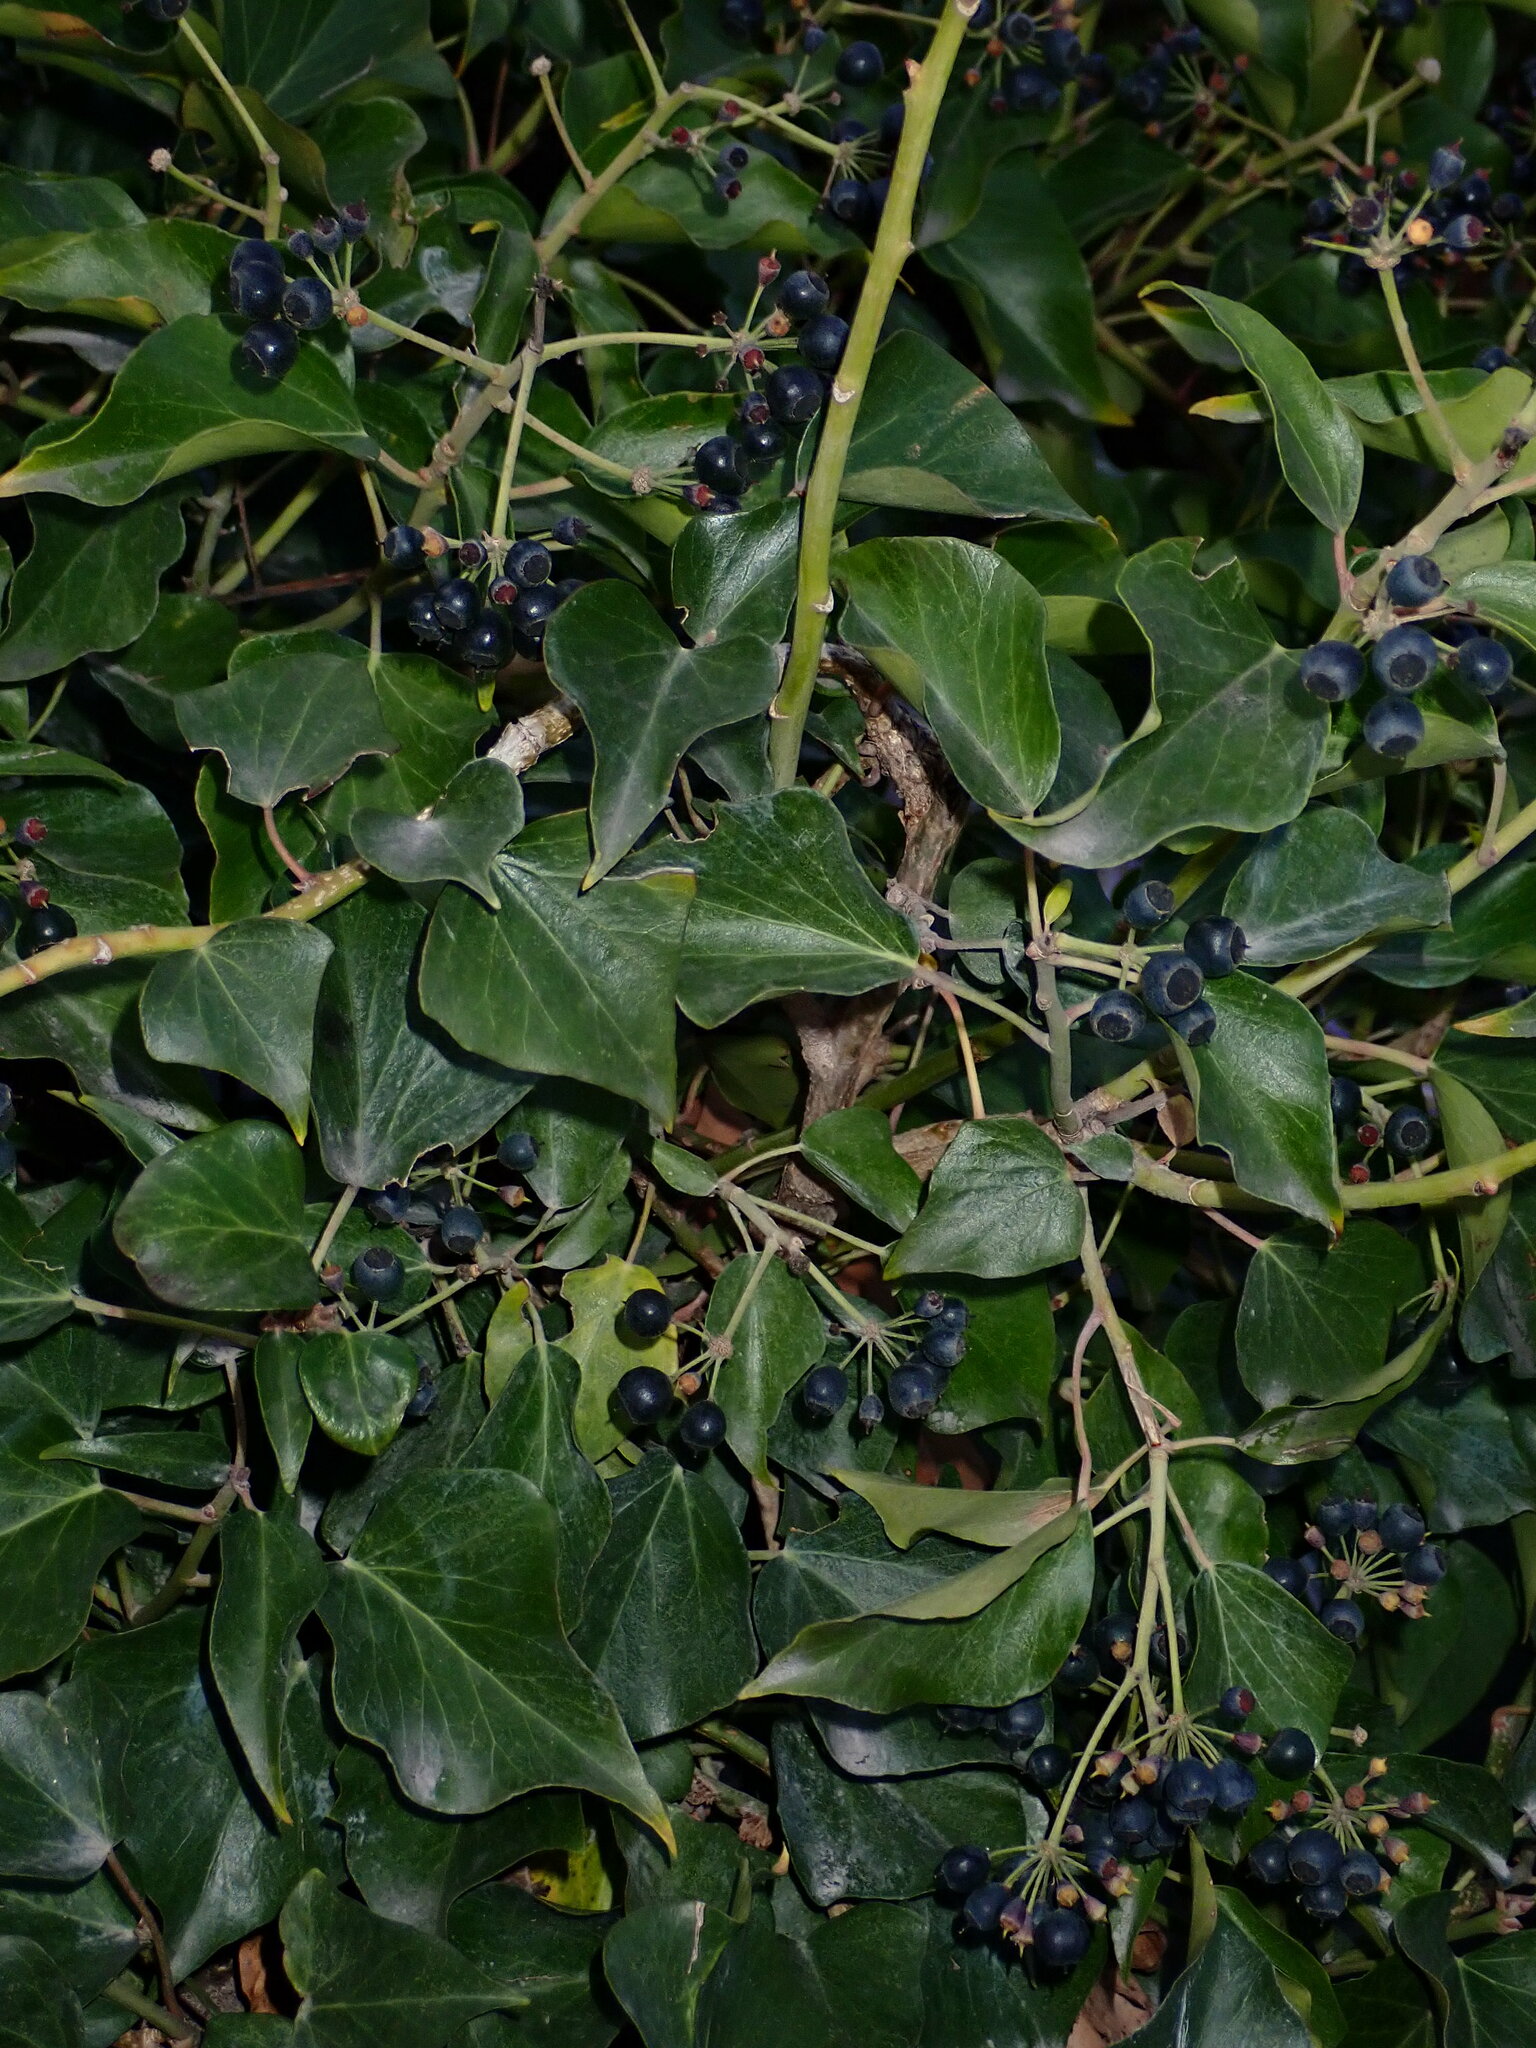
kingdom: Plantae
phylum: Tracheophyta
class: Magnoliopsida
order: Apiales
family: Araliaceae
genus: Hedera
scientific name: Hedera helix
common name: Ivy
